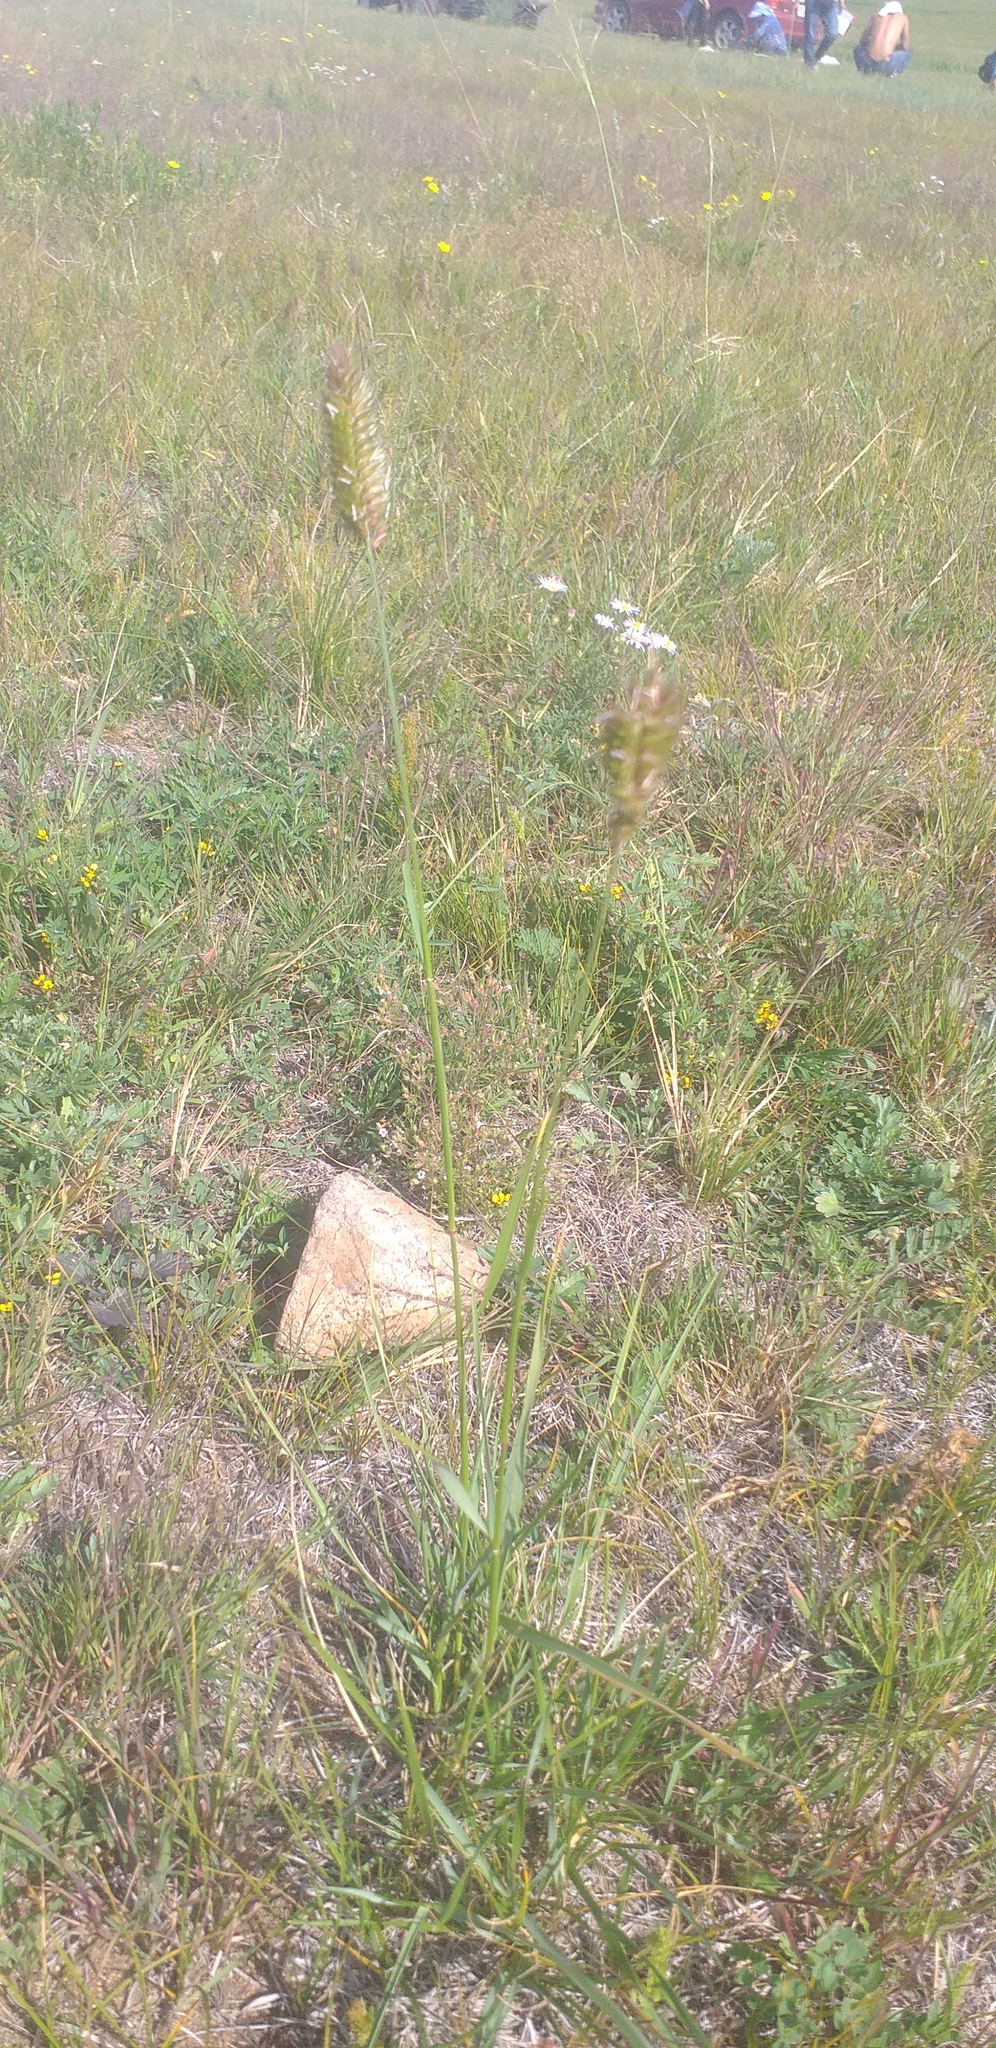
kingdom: Plantae
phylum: Tracheophyta
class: Liliopsida
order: Poales
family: Poaceae
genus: Agropyron
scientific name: Agropyron cristatum
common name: Crested wheatgrass
